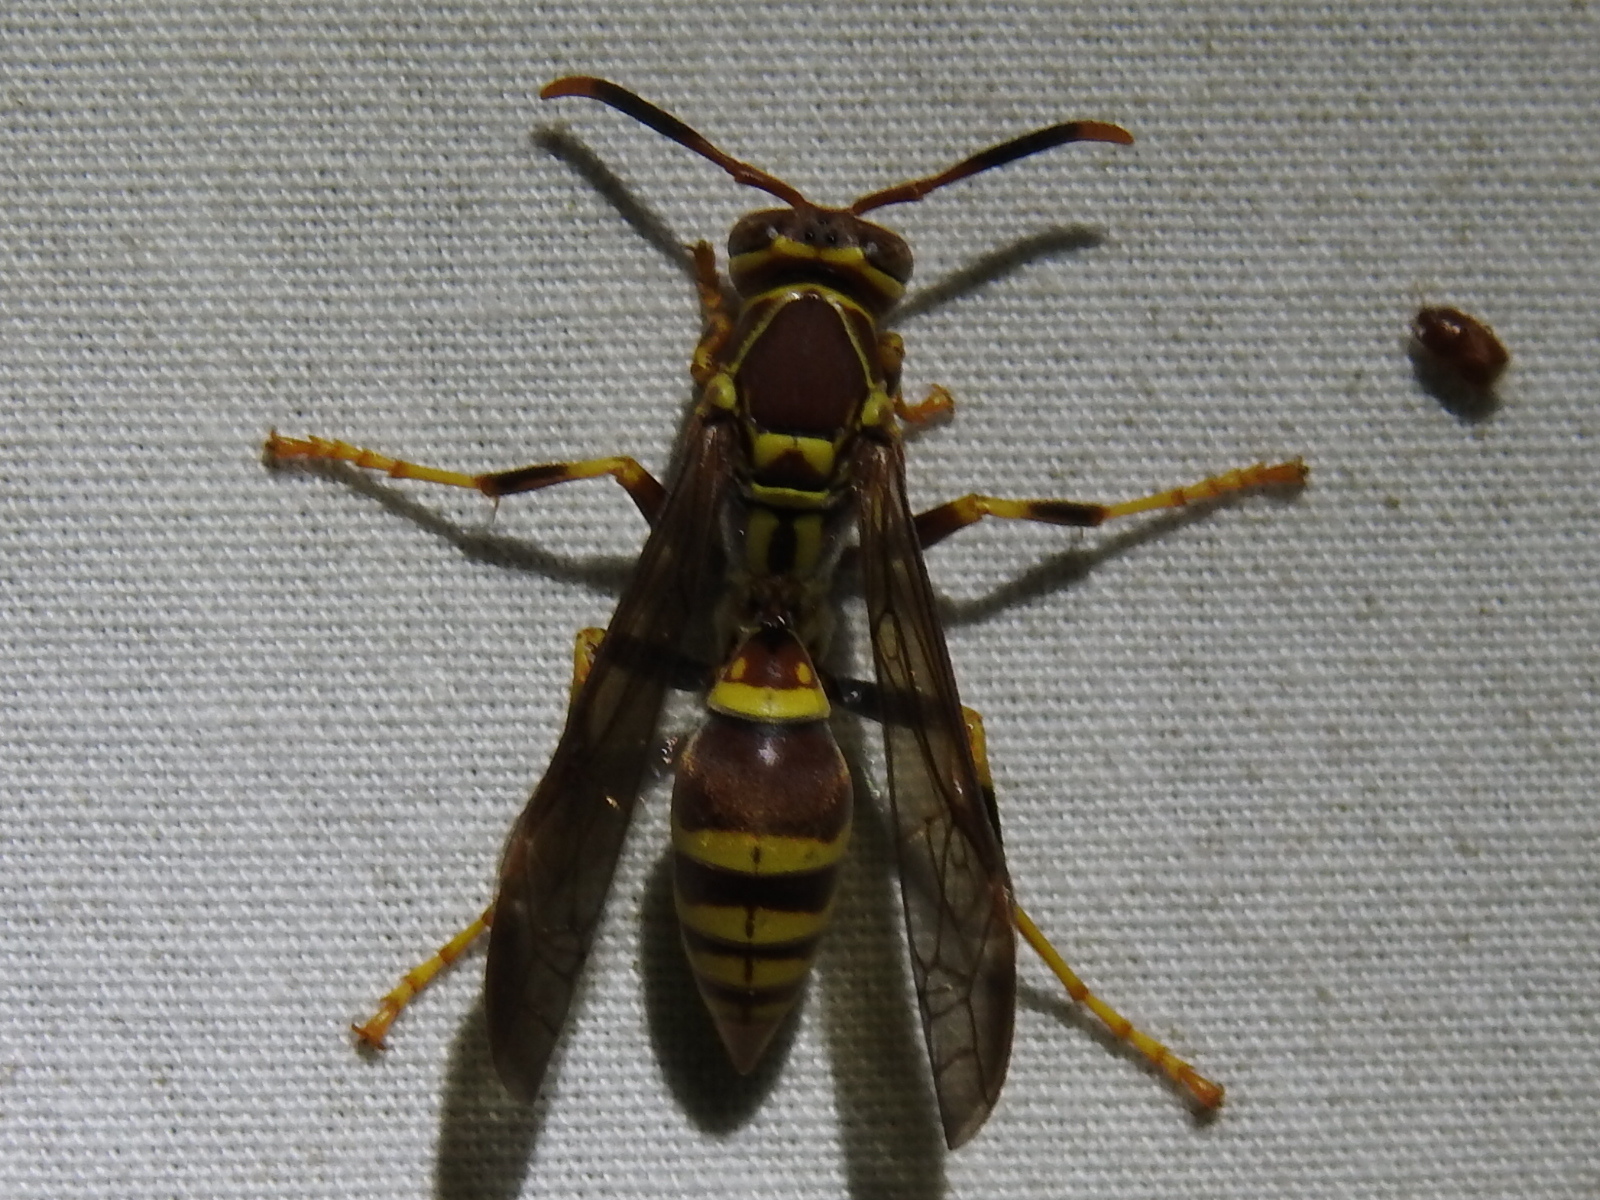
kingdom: Animalia
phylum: Arthropoda
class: Insecta
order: Hymenoptera
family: Eumenidae
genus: Polistes
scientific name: Polistes exclamans
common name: Paper wasp
